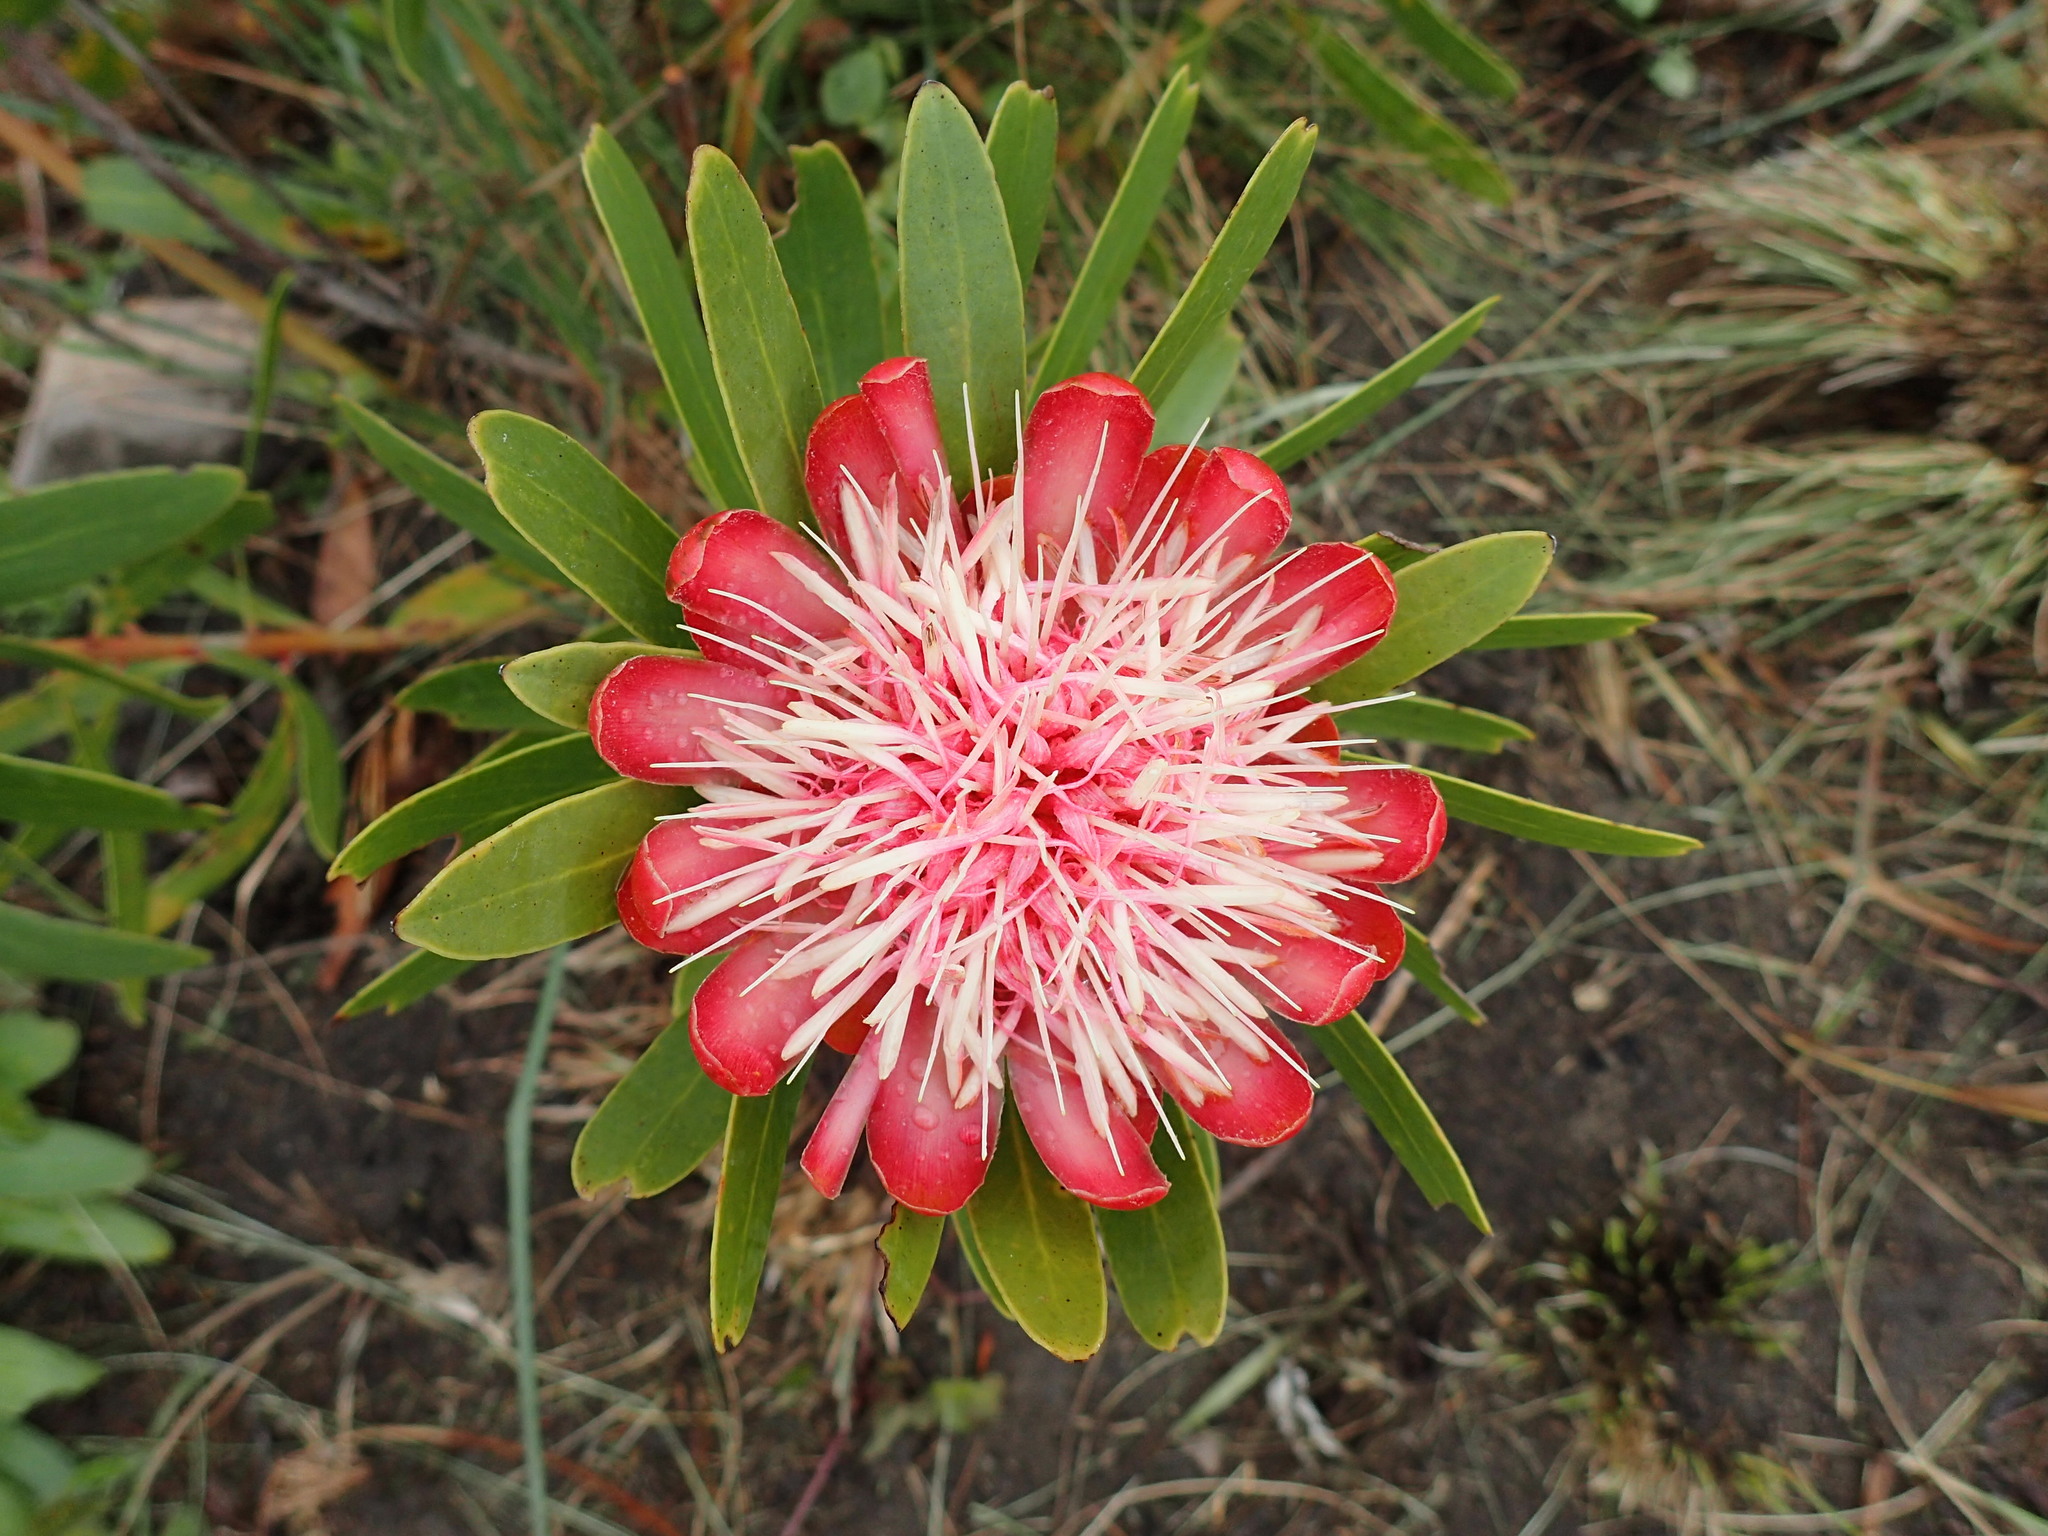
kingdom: Plantae
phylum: Tracheophyta
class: Magnoliopsida
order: Proteales
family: Proteaceae
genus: Protea
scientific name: Protea caffra
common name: Common sugarbush
